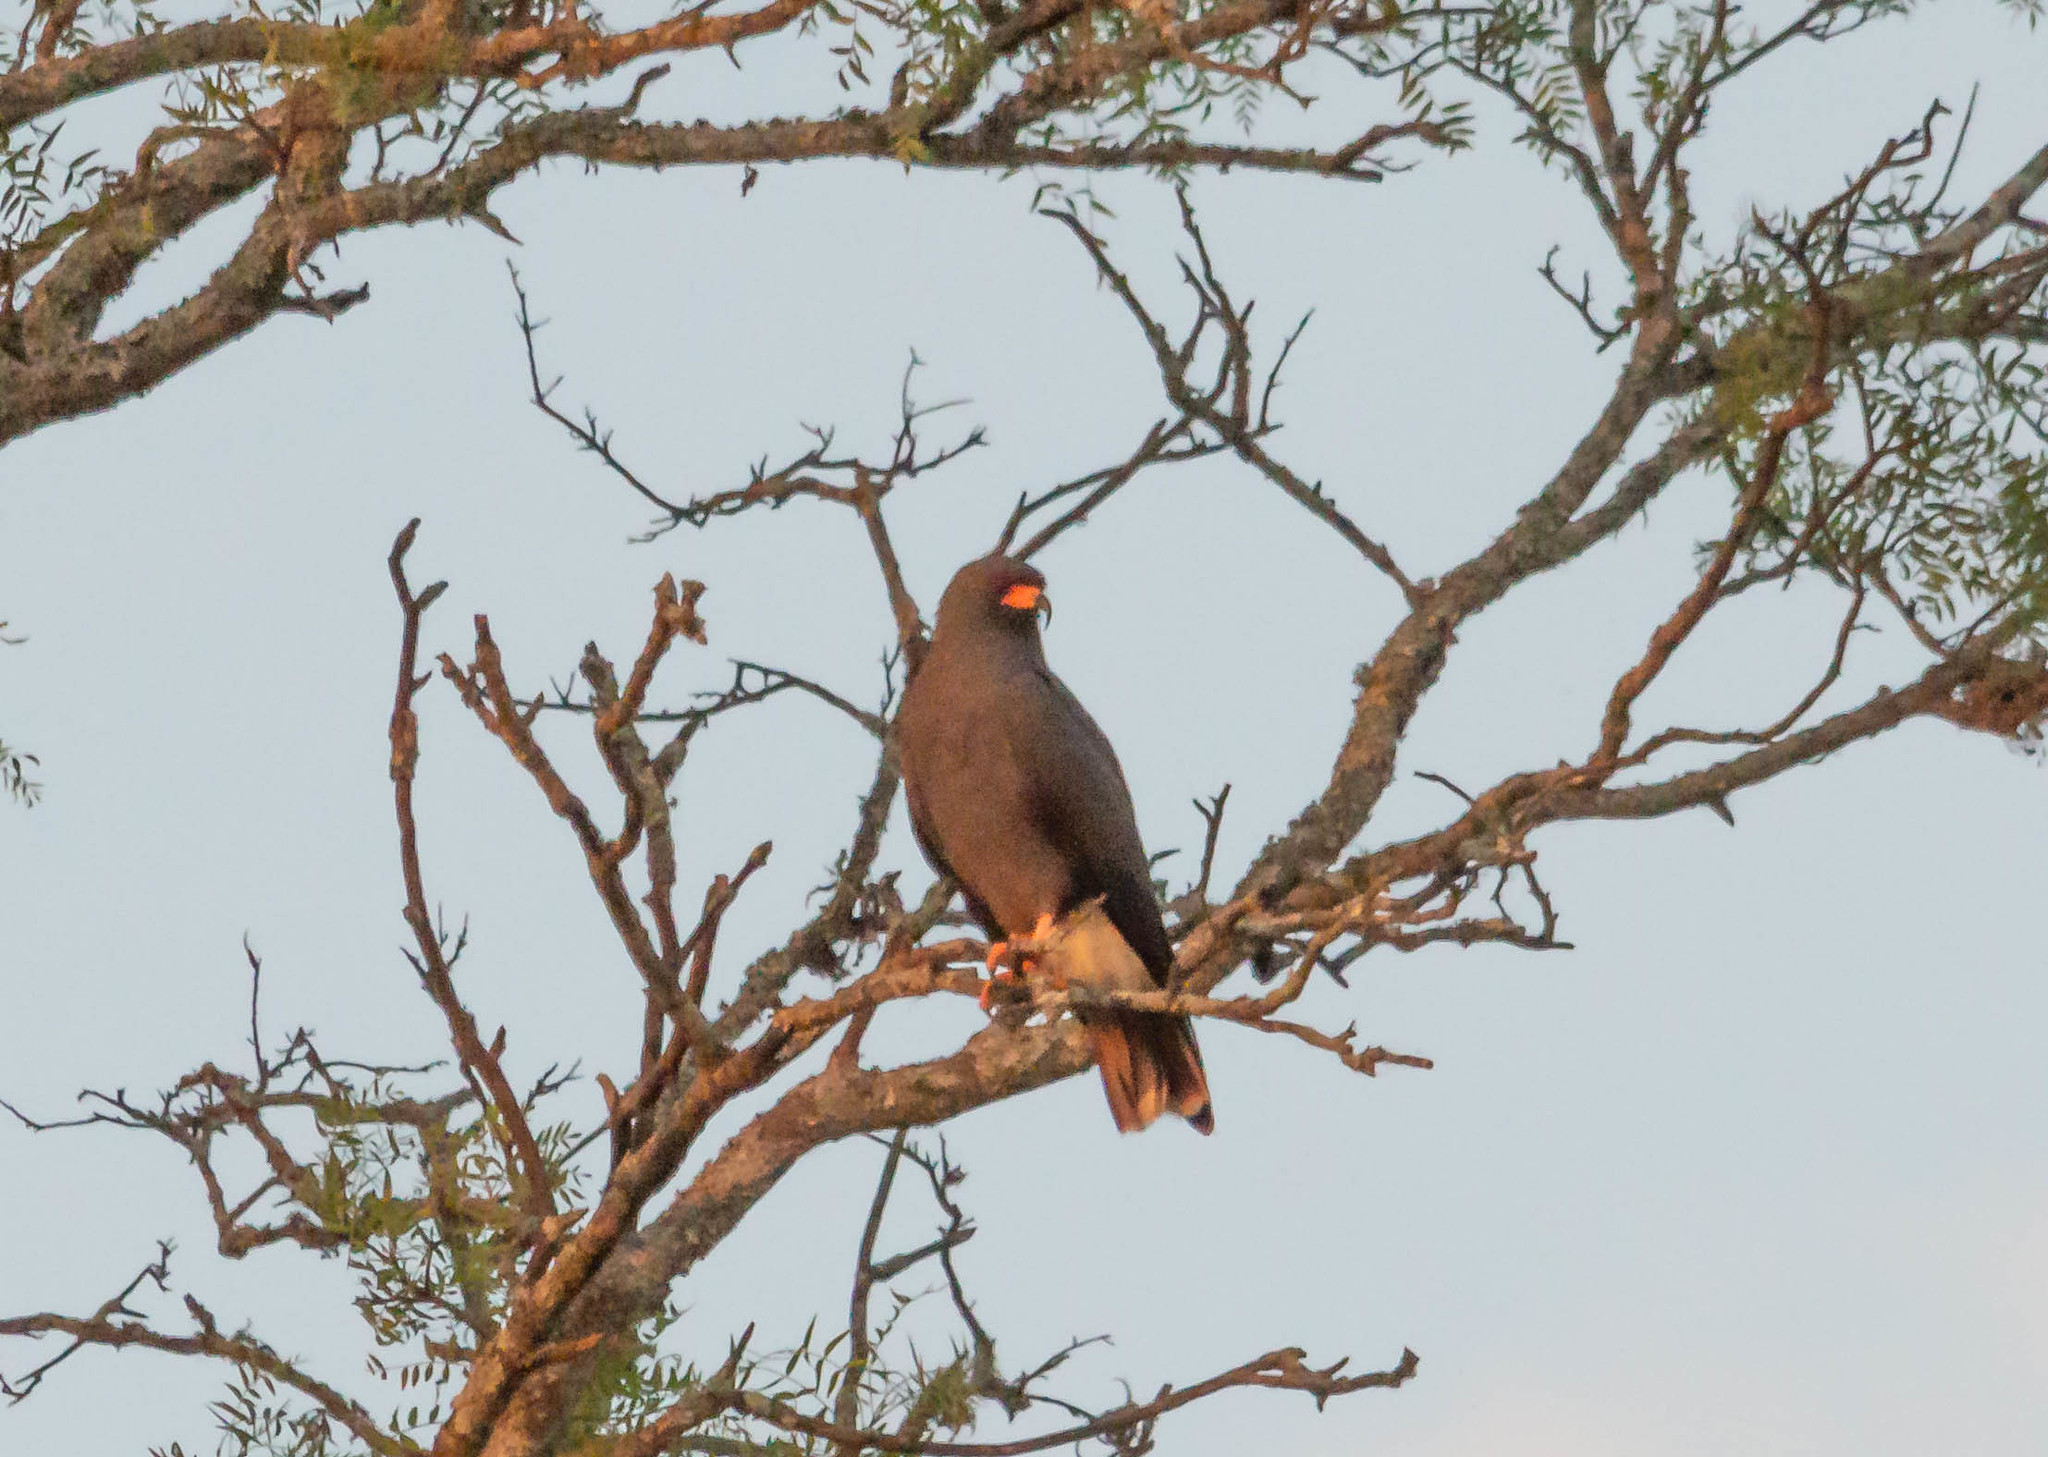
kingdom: Animalia
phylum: Chordata
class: Aves
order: Accipitriformes
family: Accipitridae
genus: Rostrhamus
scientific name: Rostrhamus sociabilis
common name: Snail kite
